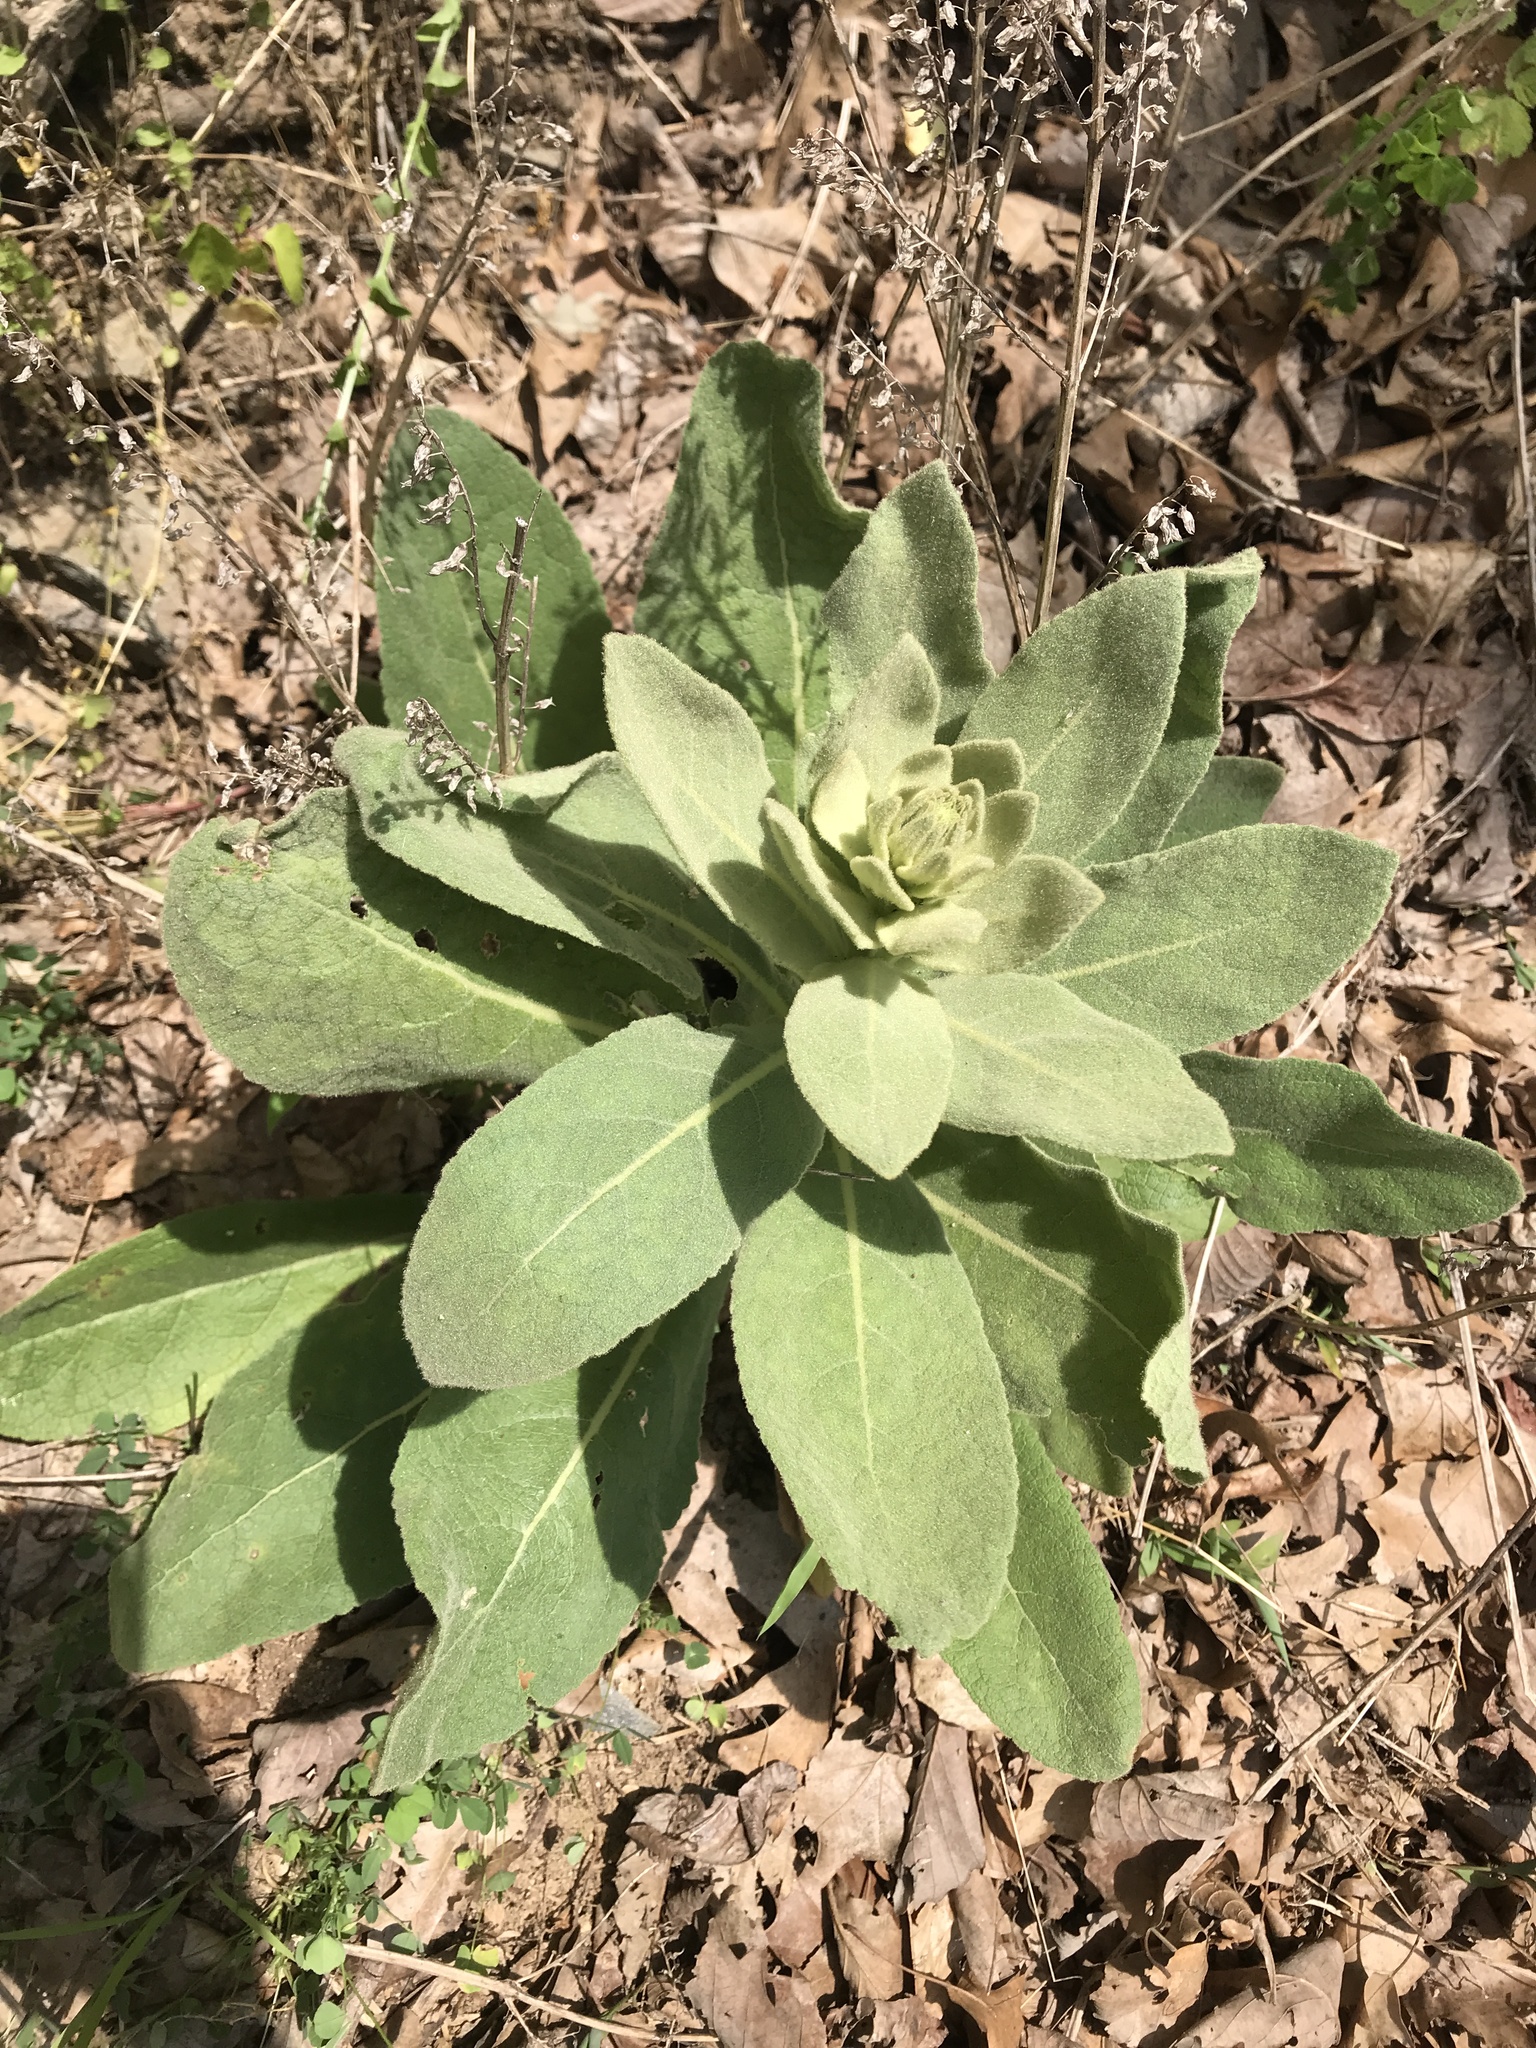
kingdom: Plantae
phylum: Tracheophyta
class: Magnoliopsida
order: Lamiales
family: Scrophulariaceae
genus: Verbascum
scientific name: Verbascum thapsus
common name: Common mullein
